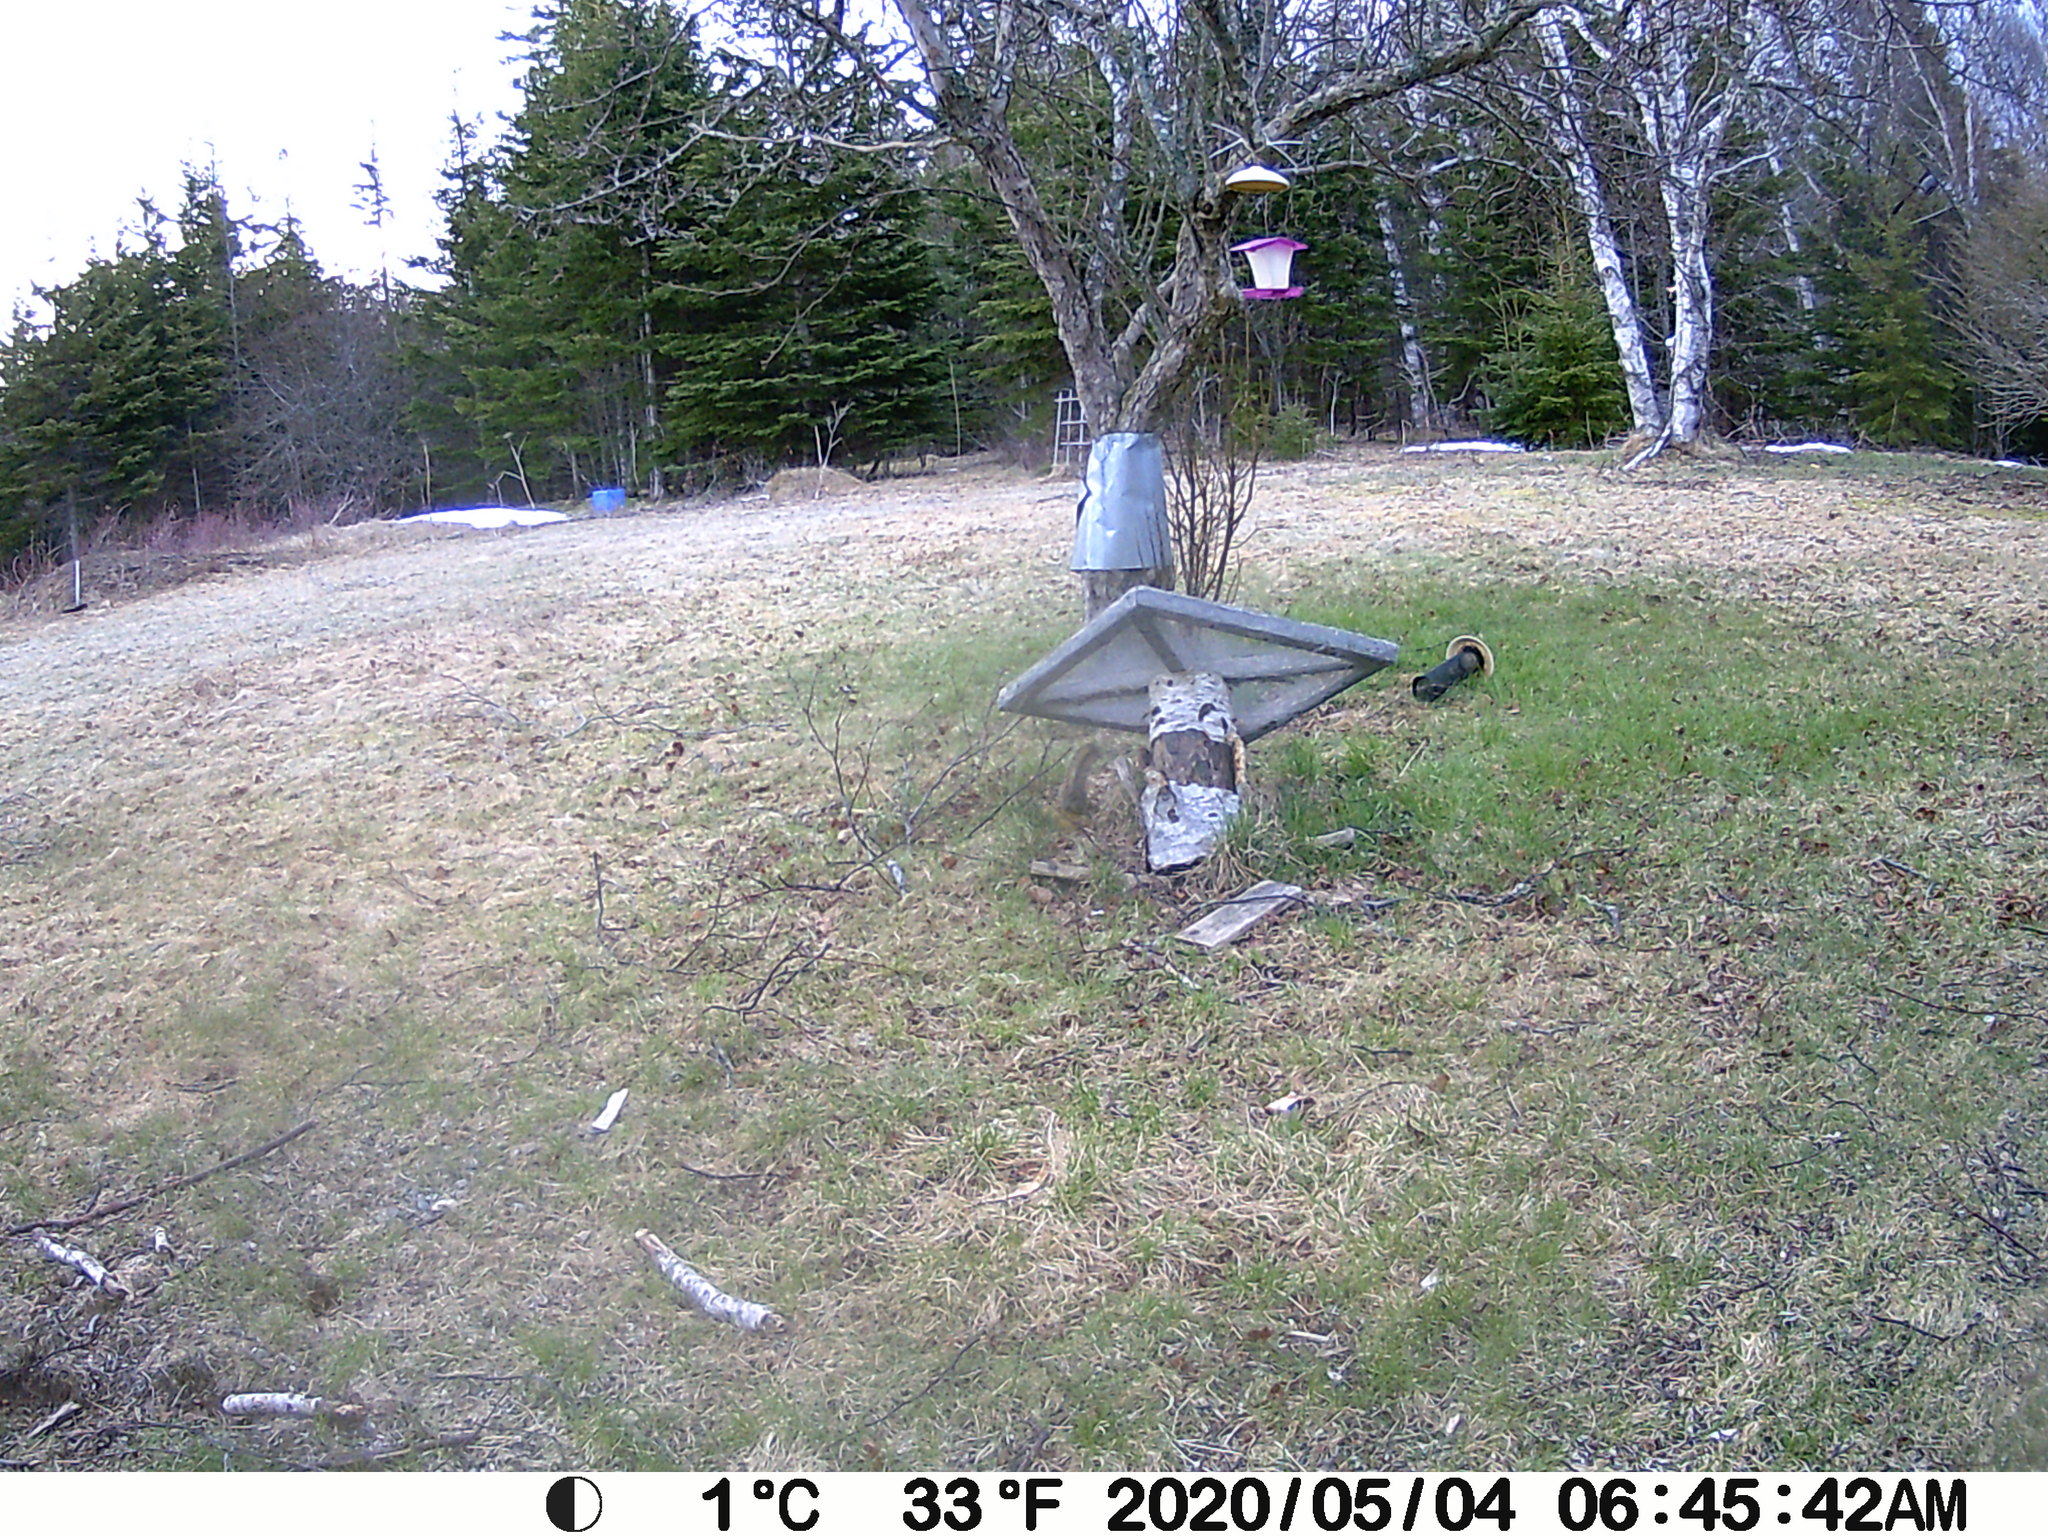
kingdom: Animalia
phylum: Chordata
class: Mammalia
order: Rodentia
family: Sciuridae
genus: Tamiasciurus
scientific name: Tamiasciurus hudsonicus
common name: Red squirrel
